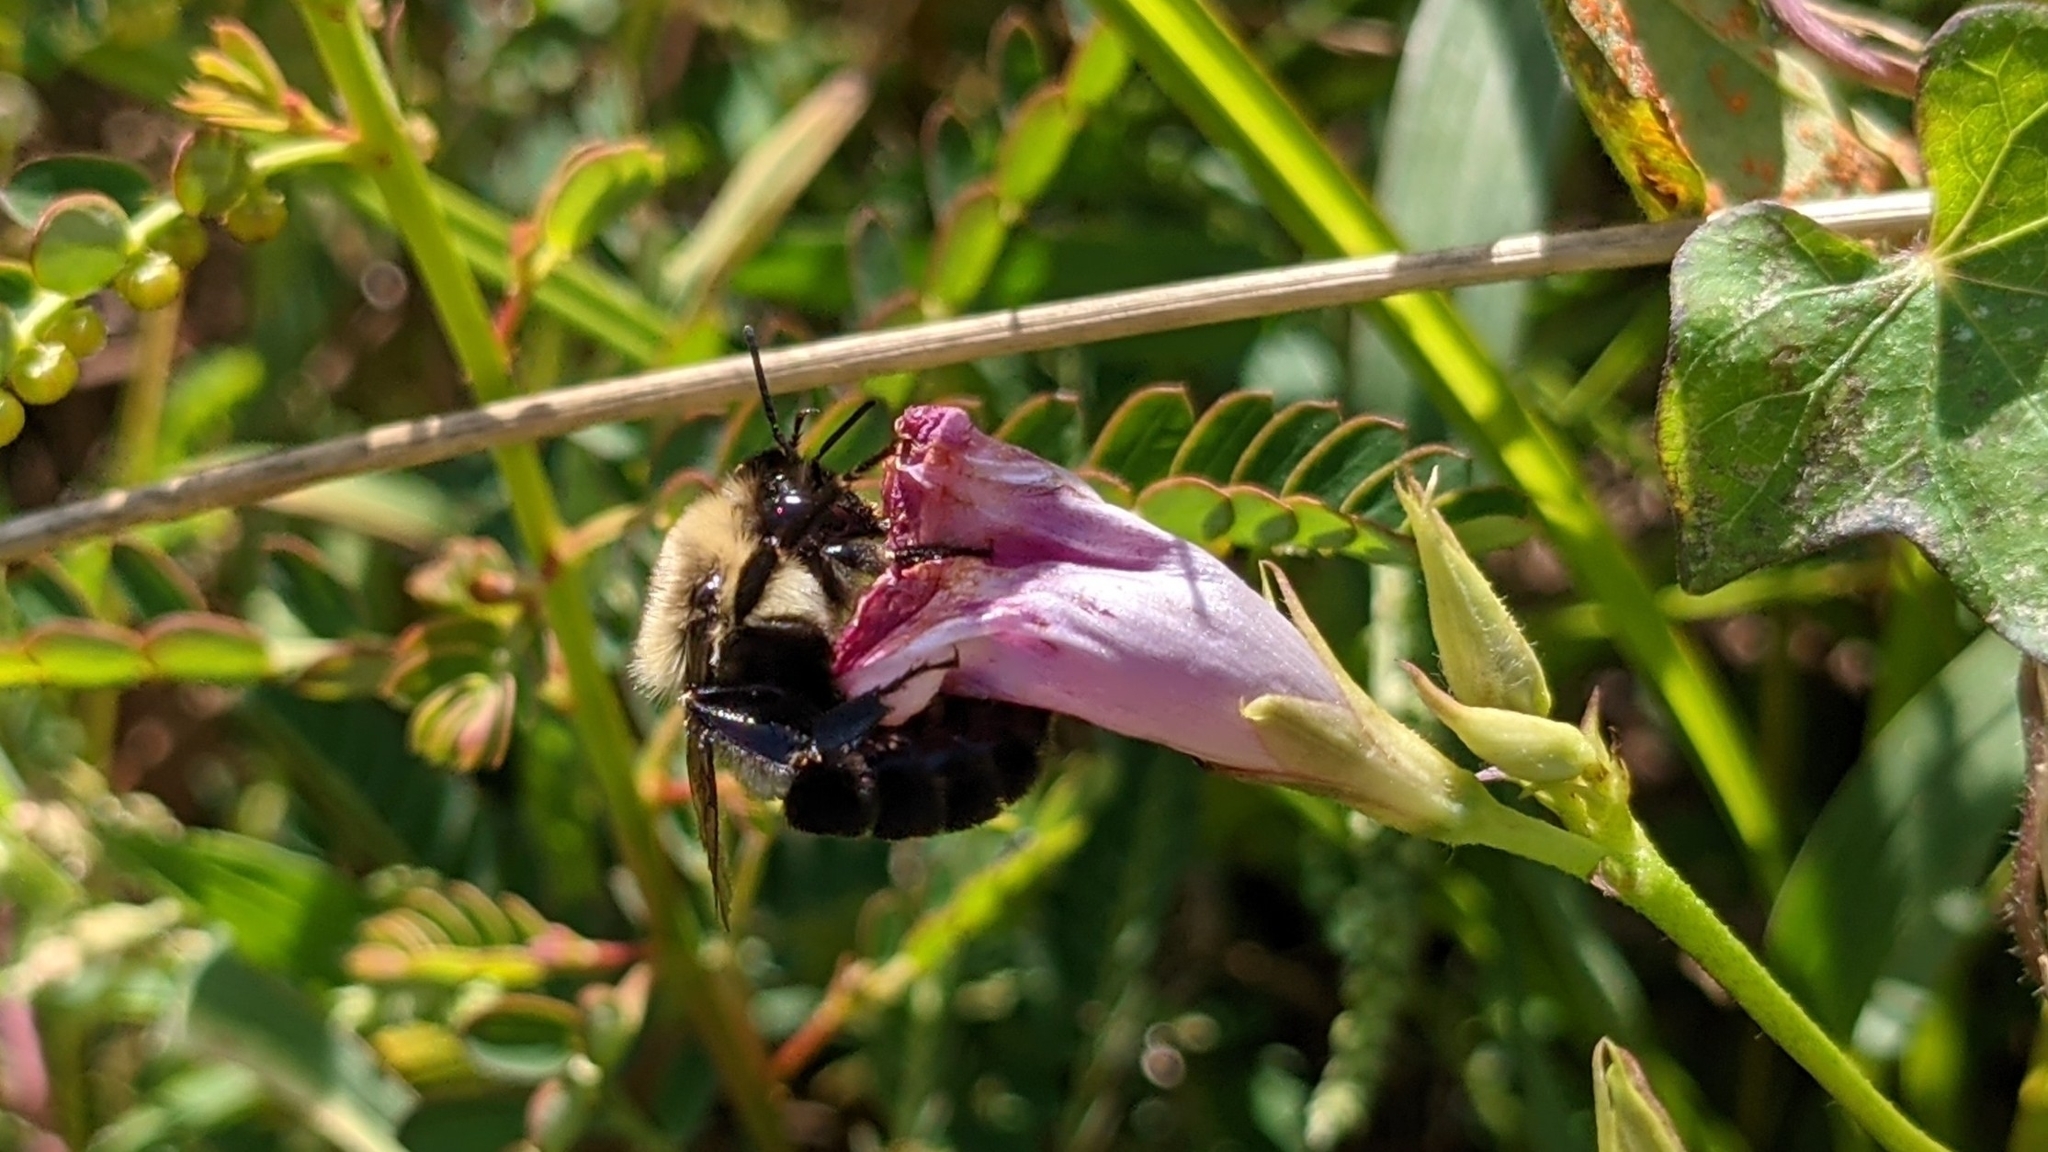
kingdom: Animalia
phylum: Arthropoda
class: Insecta
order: Hymenoptera
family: Apidae
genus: Bombus
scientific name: Bombus impatiens
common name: Common eastern bumble bee
